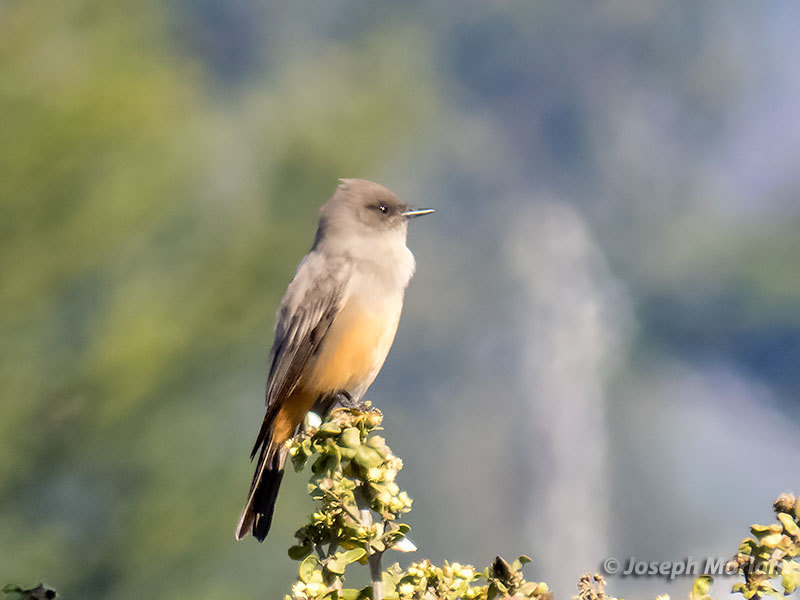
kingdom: Animalia
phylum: Chordata
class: Aves
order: Passeriformes
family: Tyrannidae
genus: Sayornis
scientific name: Sayornis saya
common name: Say's phoebe
